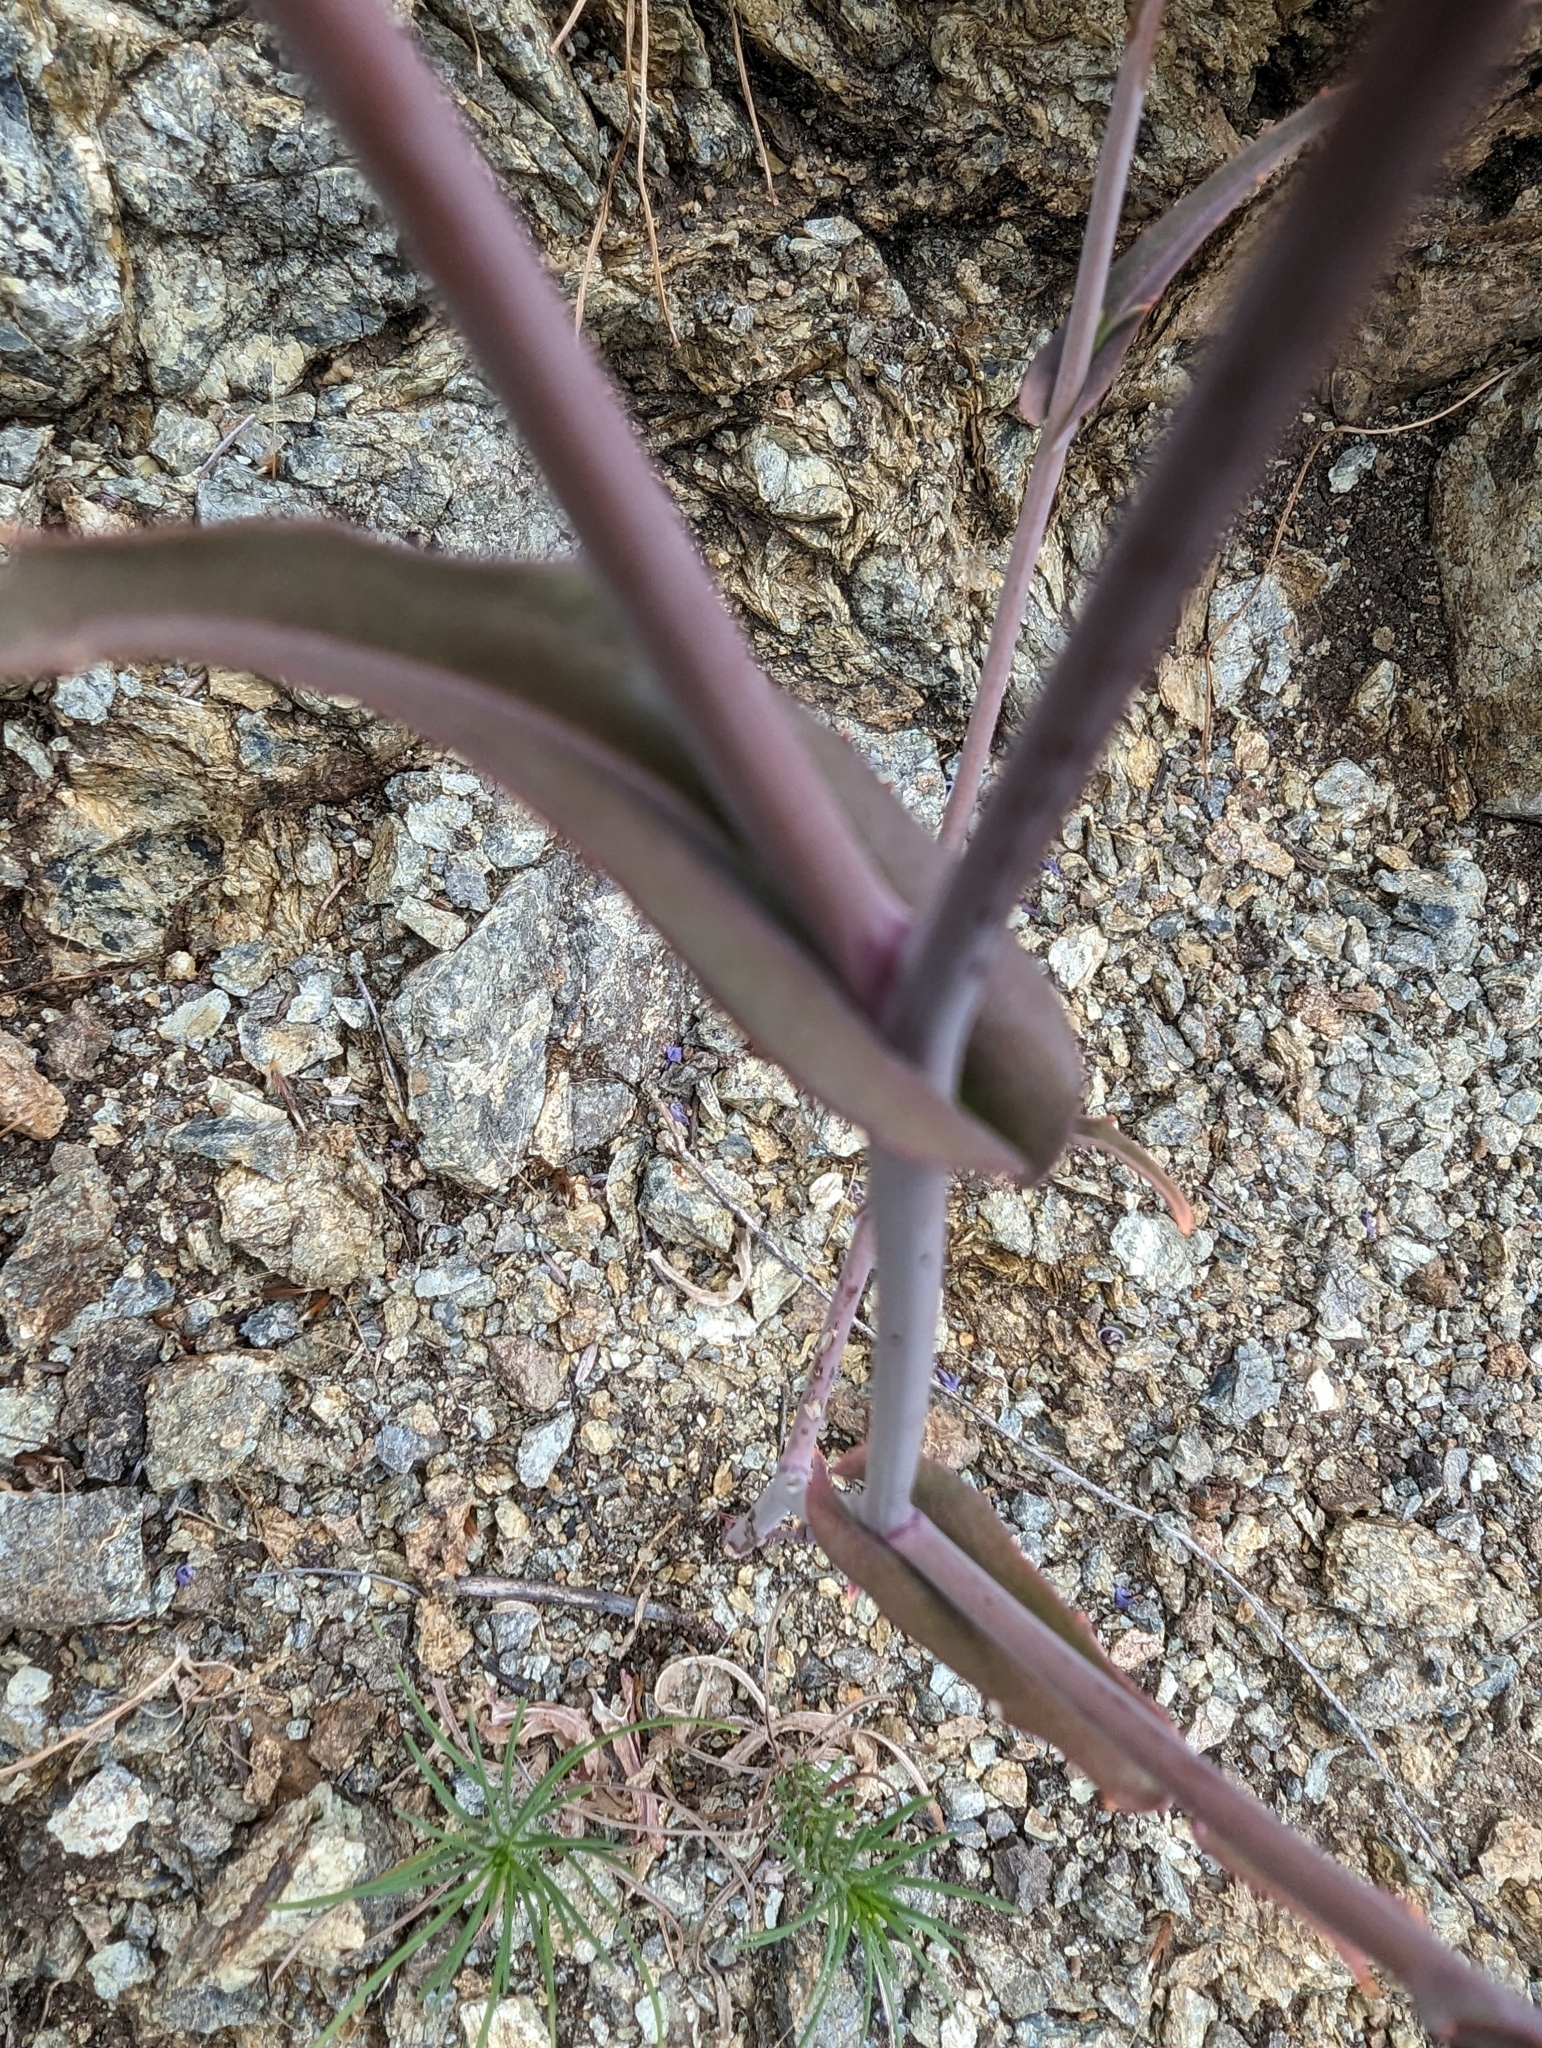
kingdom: Plantae
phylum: Tracheophyta
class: Magnoliopsida
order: Brassicales
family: Brassicaceae
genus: Streptanthus
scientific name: Streptanthus glandulosus
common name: Jewel-flower
